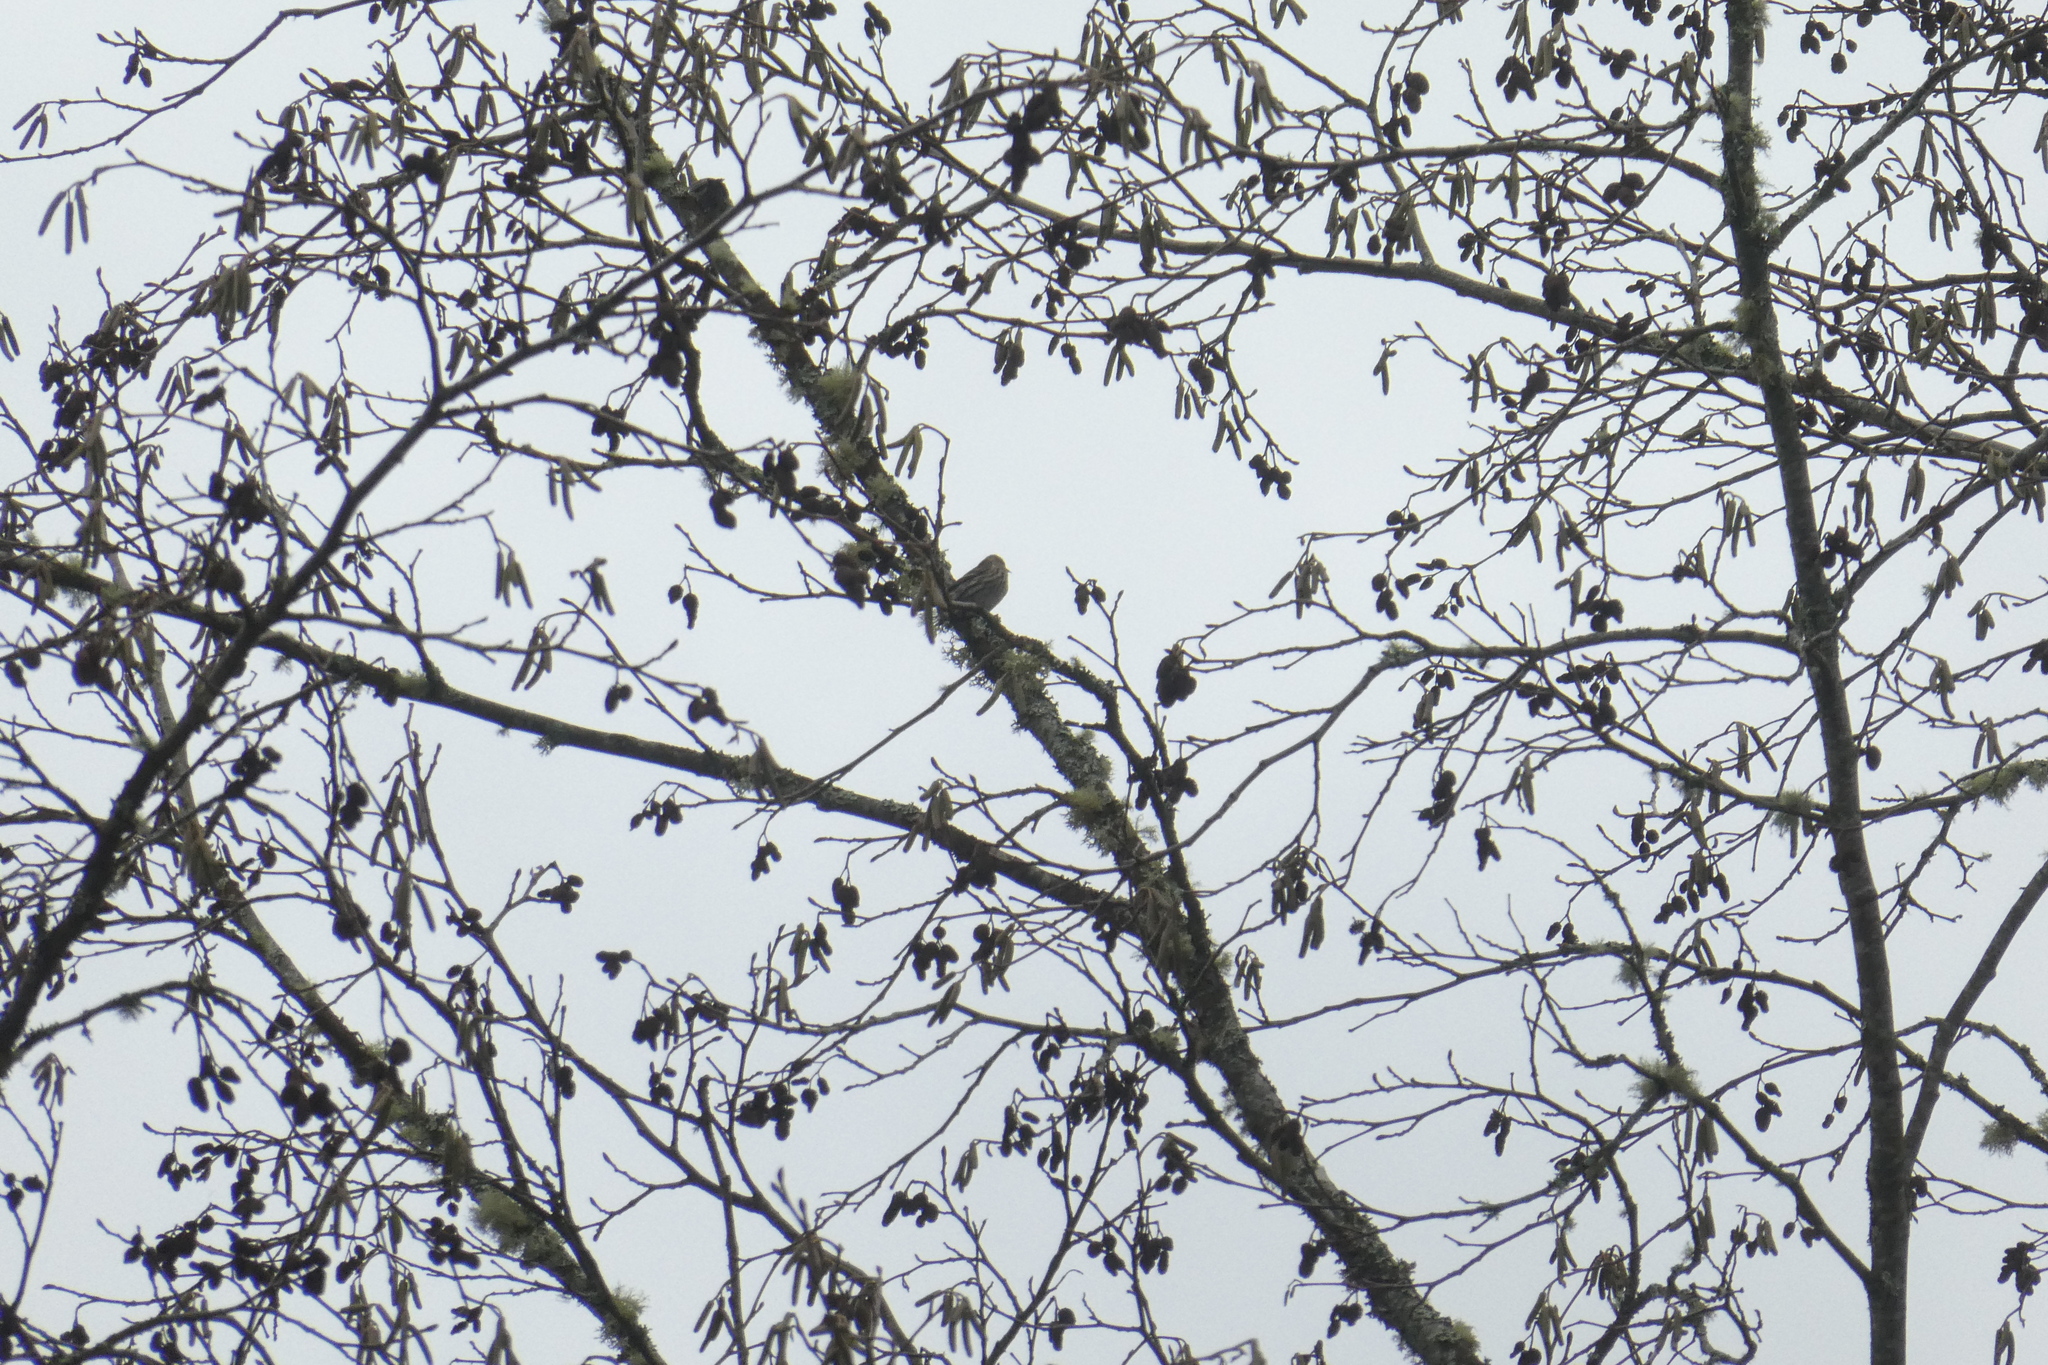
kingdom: Animalia
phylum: Chordata
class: Aves
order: Passeriformes
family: Fringillidae
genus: Spinus
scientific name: Spinus pinus
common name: Pine siskin
